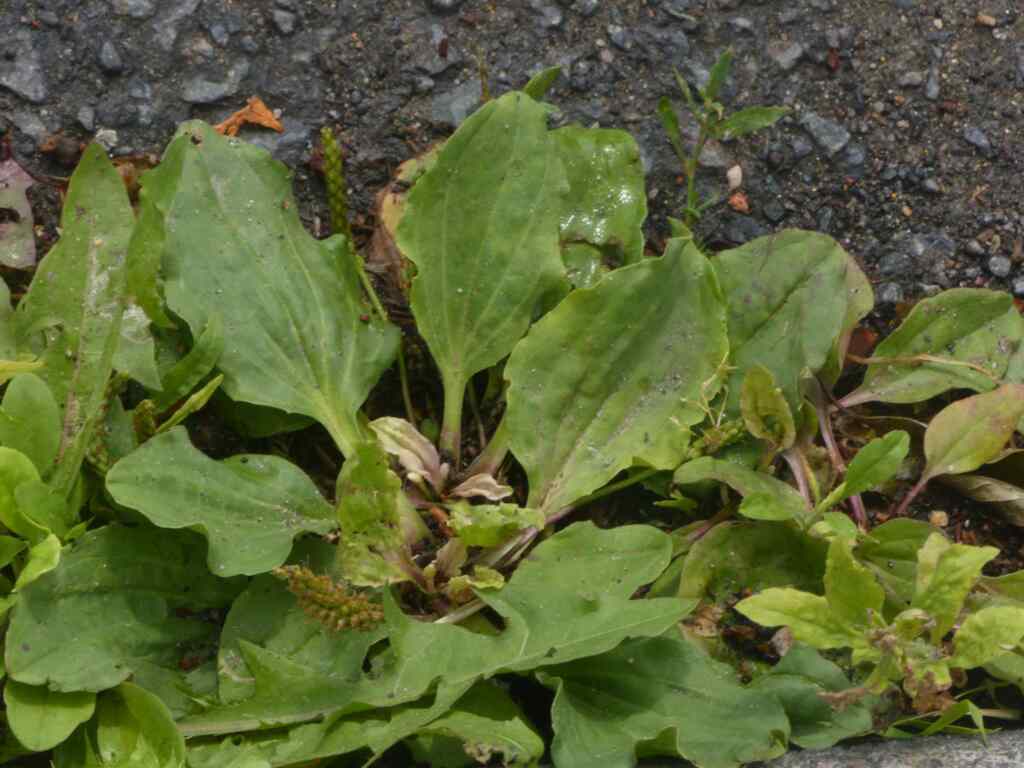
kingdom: Plantae
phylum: Tracheophyta
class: Magnoliopsida
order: Lamiales
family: Plantaginaceae
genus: Plantago
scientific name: Plantago major
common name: Common plantain
